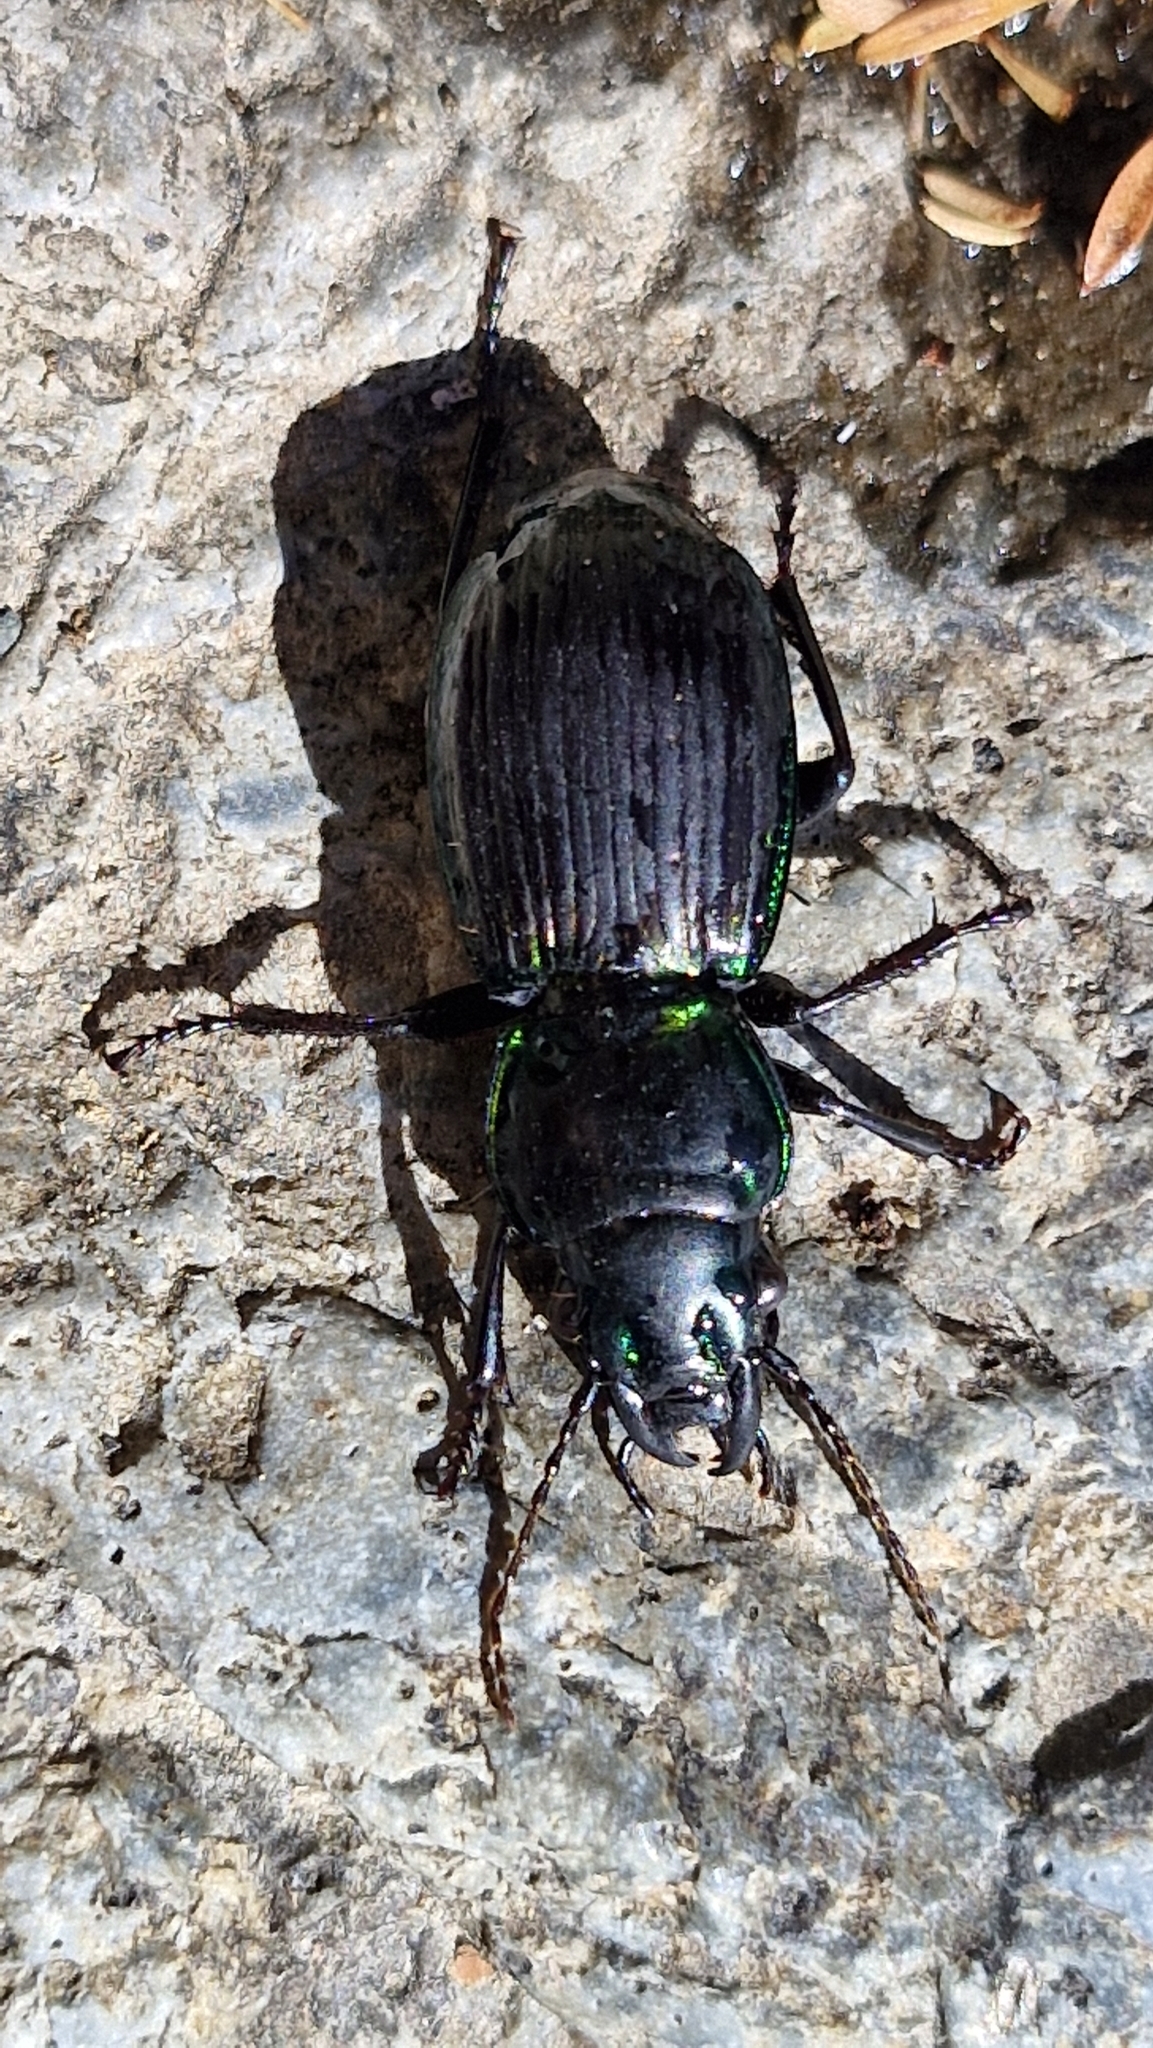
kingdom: Animalia
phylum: Arthropoda
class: Insecta
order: Coleoptera
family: Carabidae
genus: Megadromus
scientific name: Megadromus antarcticus
